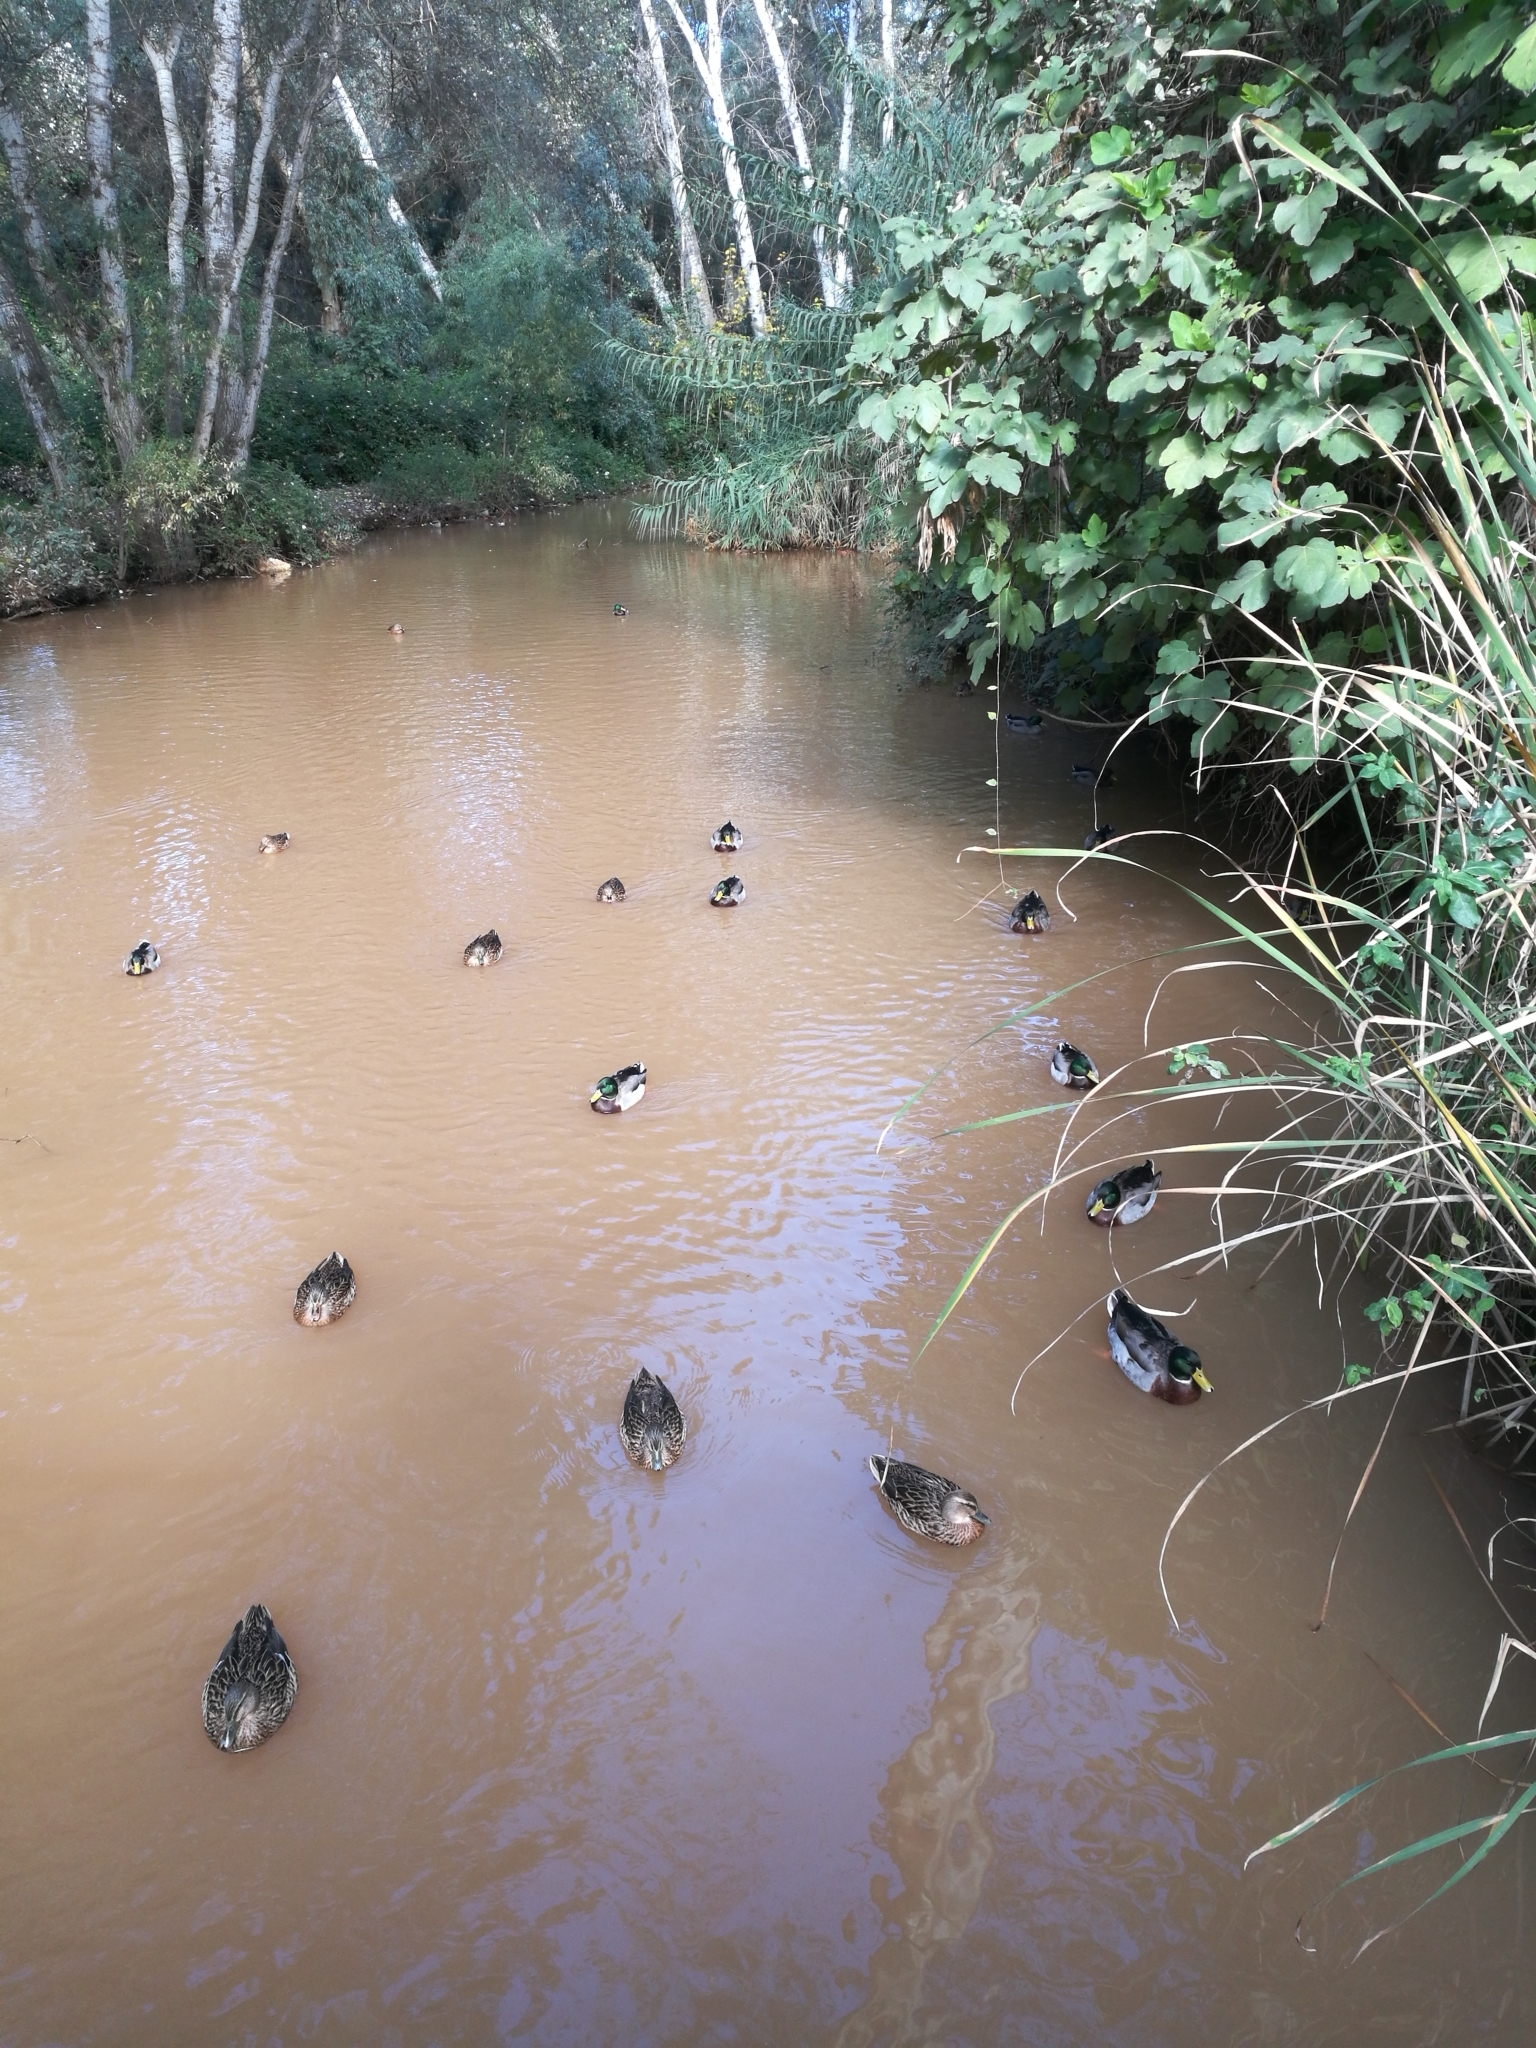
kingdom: Animalia
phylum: Chordata
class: Aves
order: Anseriformes
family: Anatidae
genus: Anas
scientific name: Anas platyrhynchos
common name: Mallard
